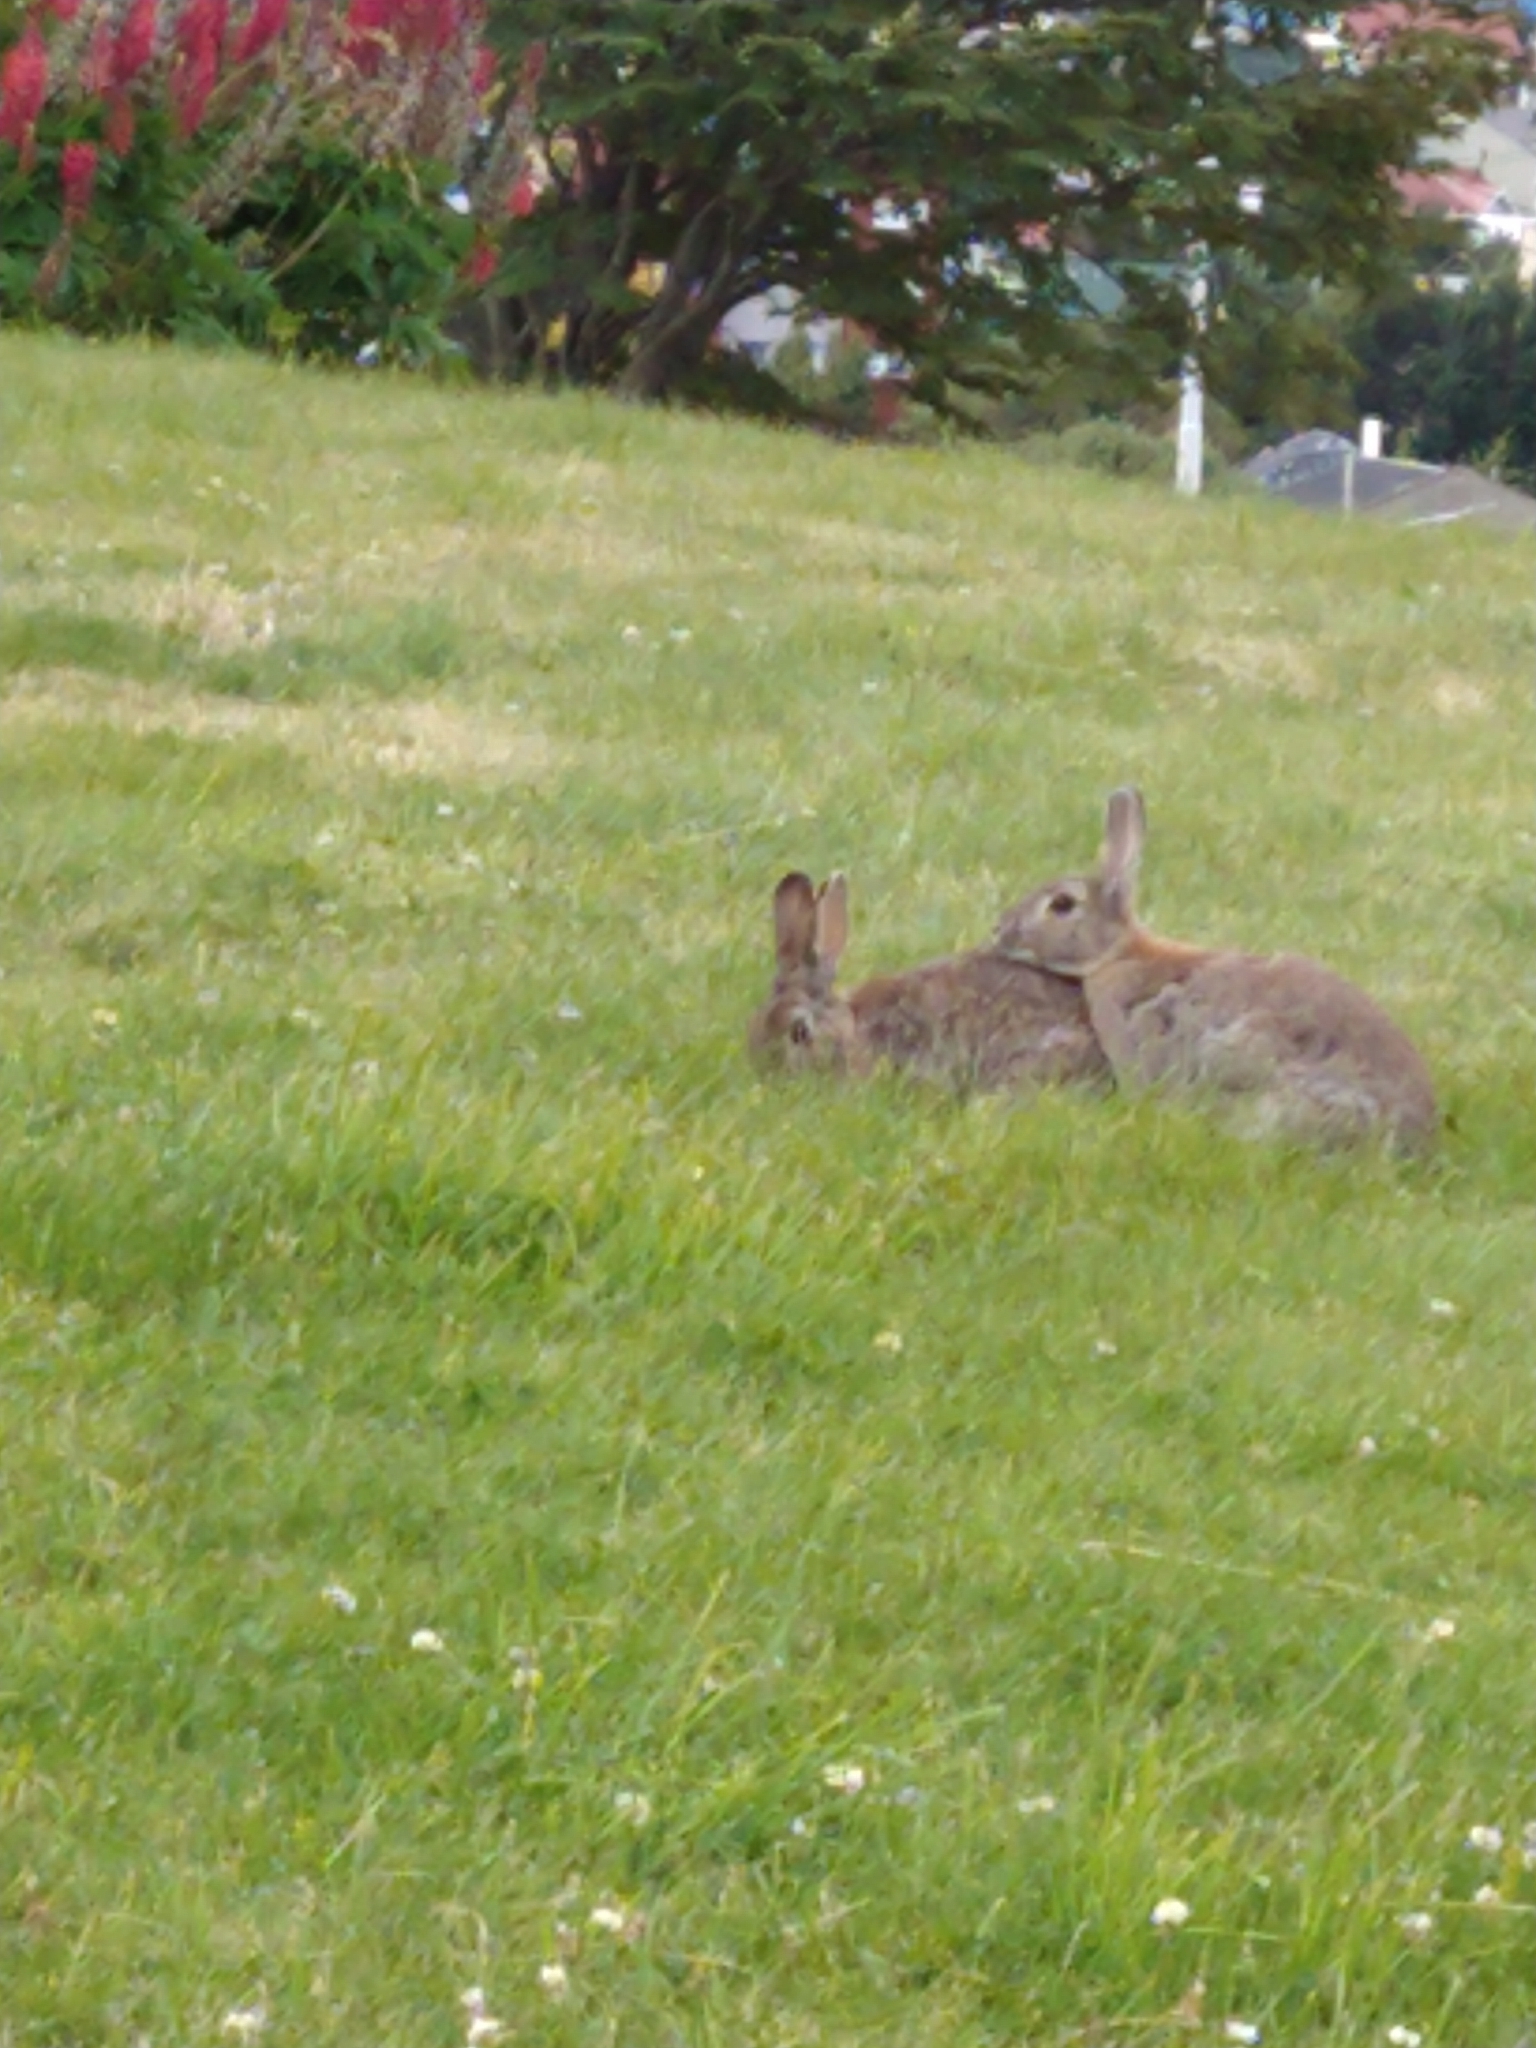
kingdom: Animalia
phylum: Chordata
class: Mammalia
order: Lagomorpha
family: Leporidae
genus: Oryctolagus
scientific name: Oryctolagus cuniculus
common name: European rabbit
